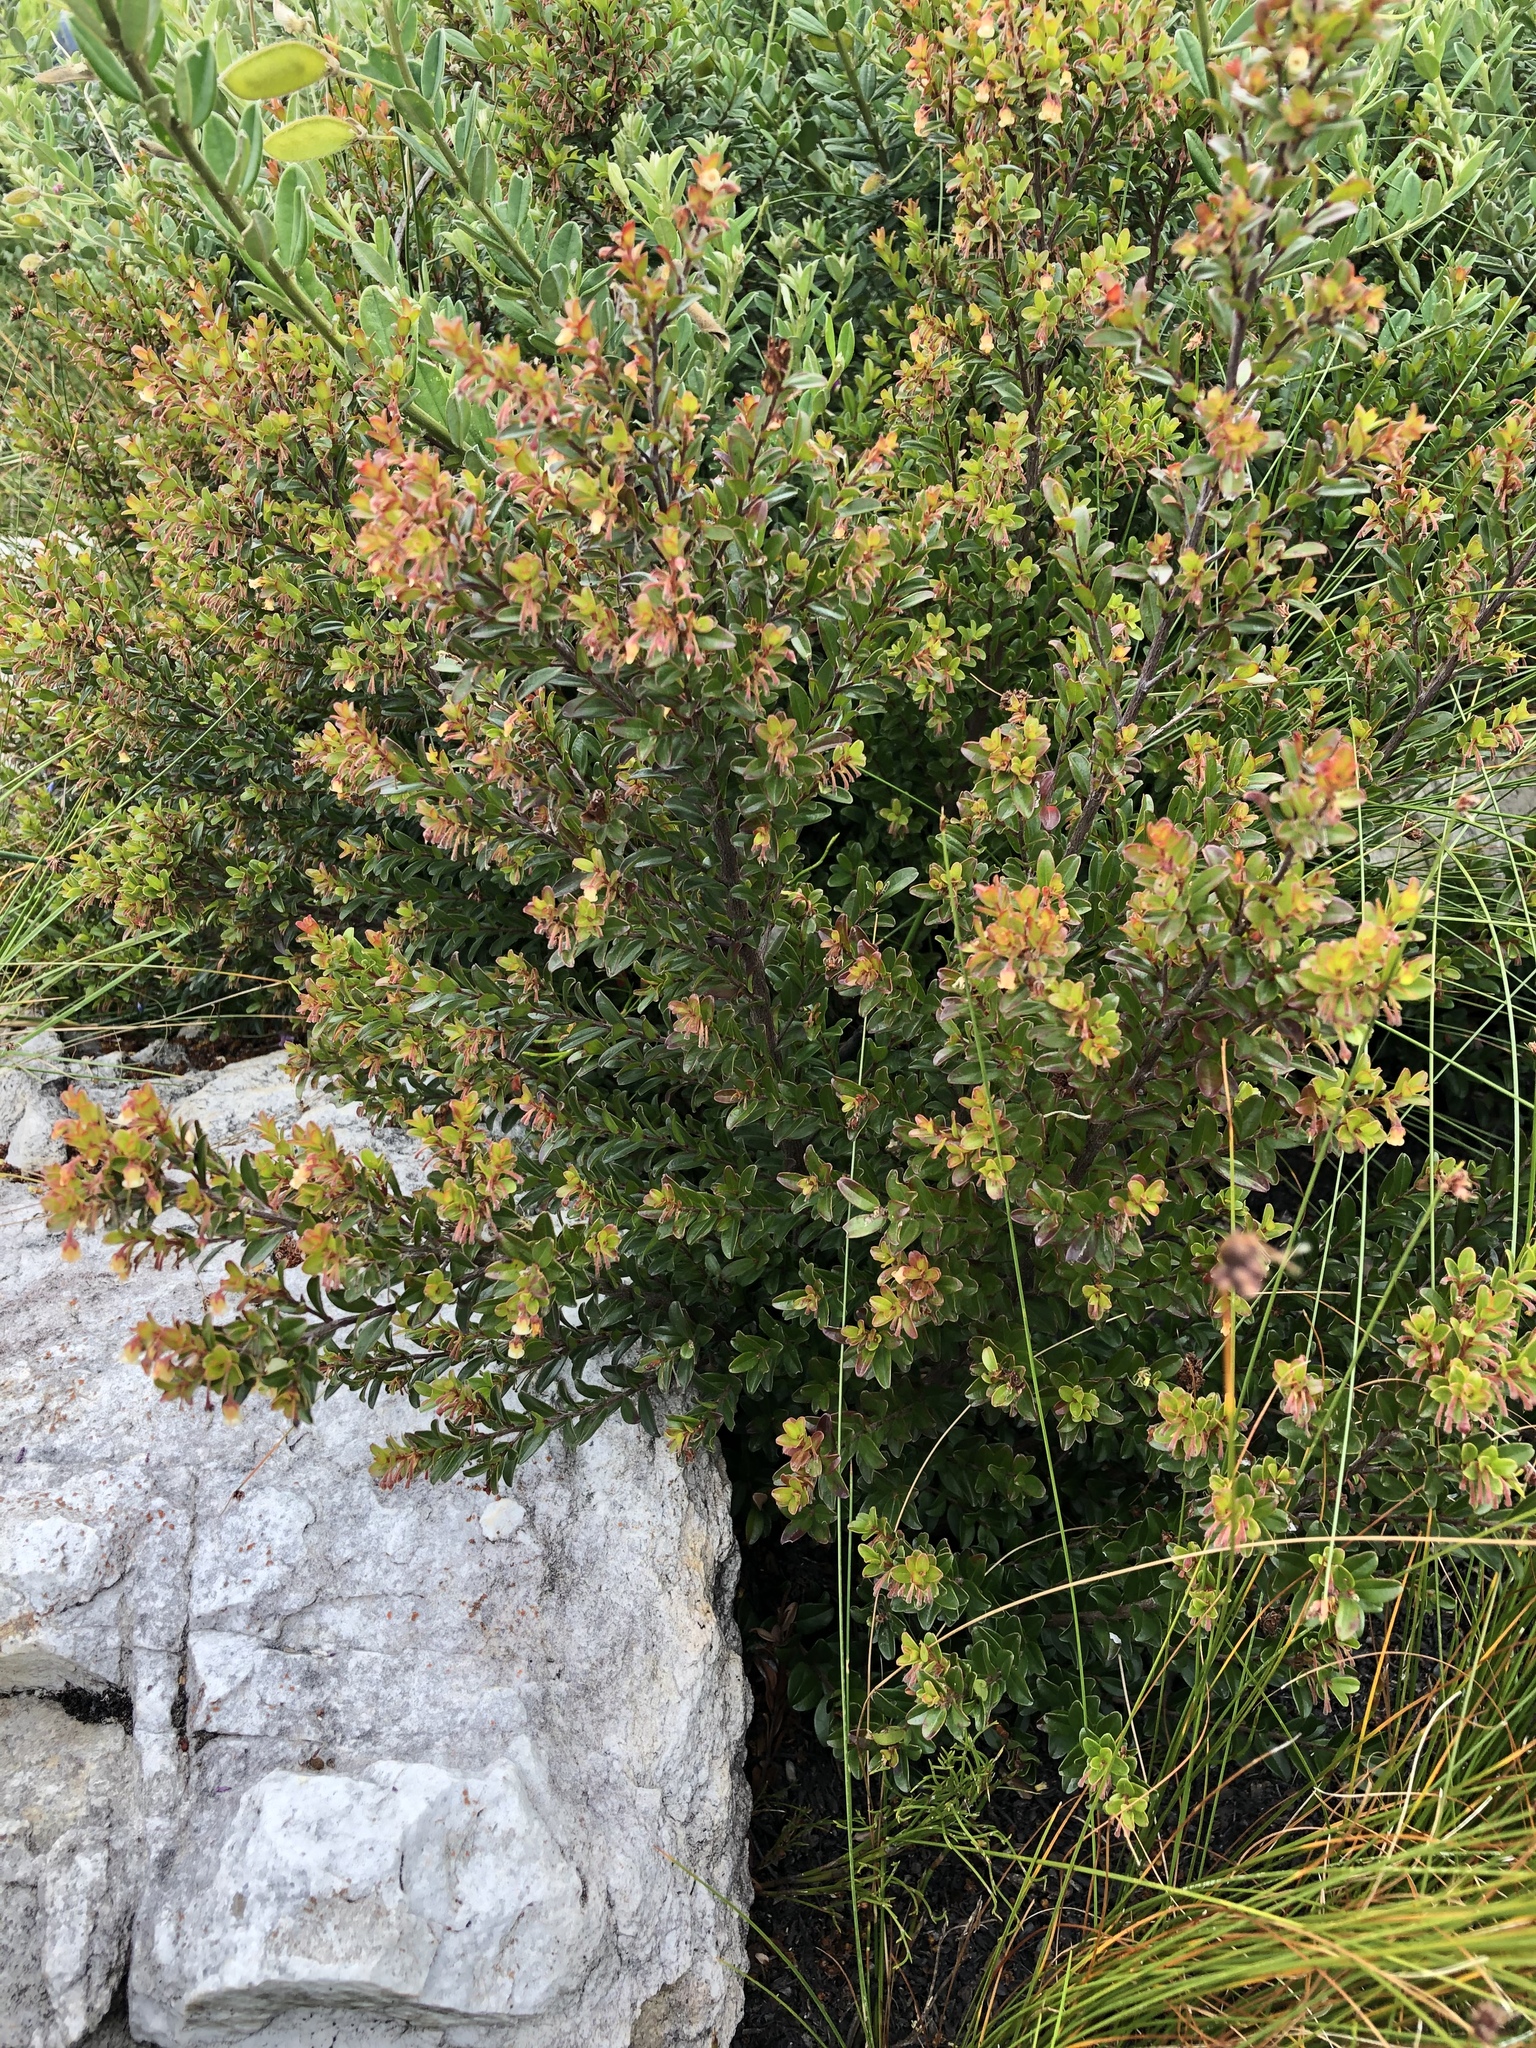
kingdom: Plantae
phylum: Tracheophyta
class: Magnoliopsida
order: Ericales
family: Ebenaceae
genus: Diospyros
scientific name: Diospyros glabra
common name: Fynbos star apple
